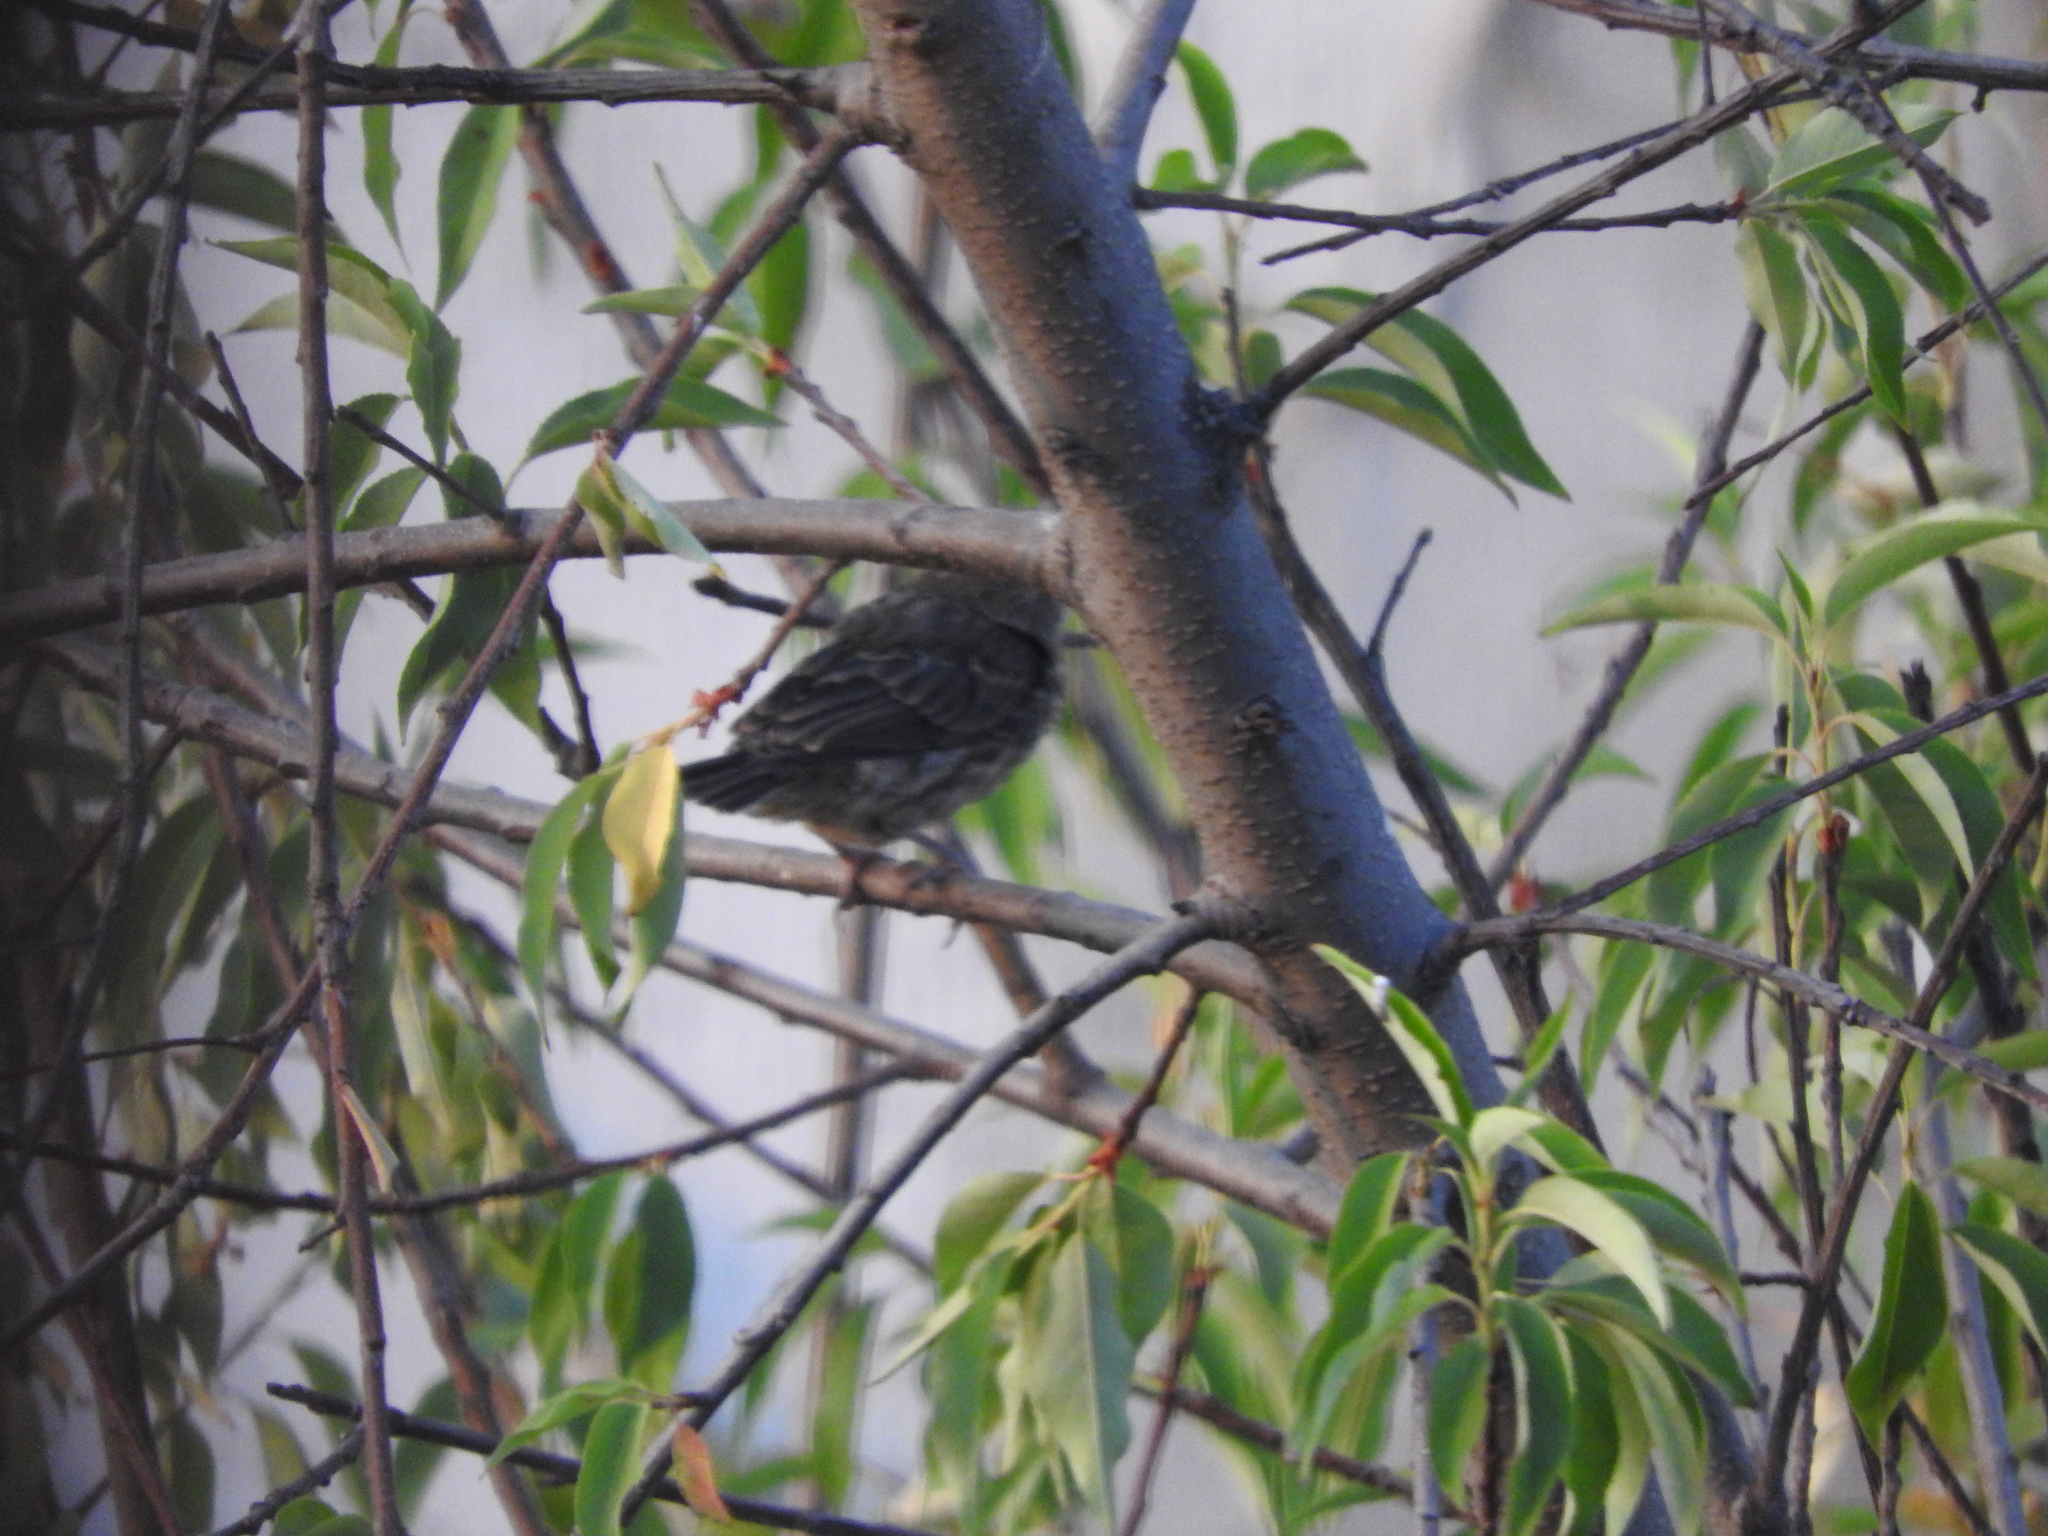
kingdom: Animalia
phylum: Chordata
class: Aves
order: Passeriformes
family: Fringillidae
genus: Haemorhous
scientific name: Haemorhous mexicanus
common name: House finch
